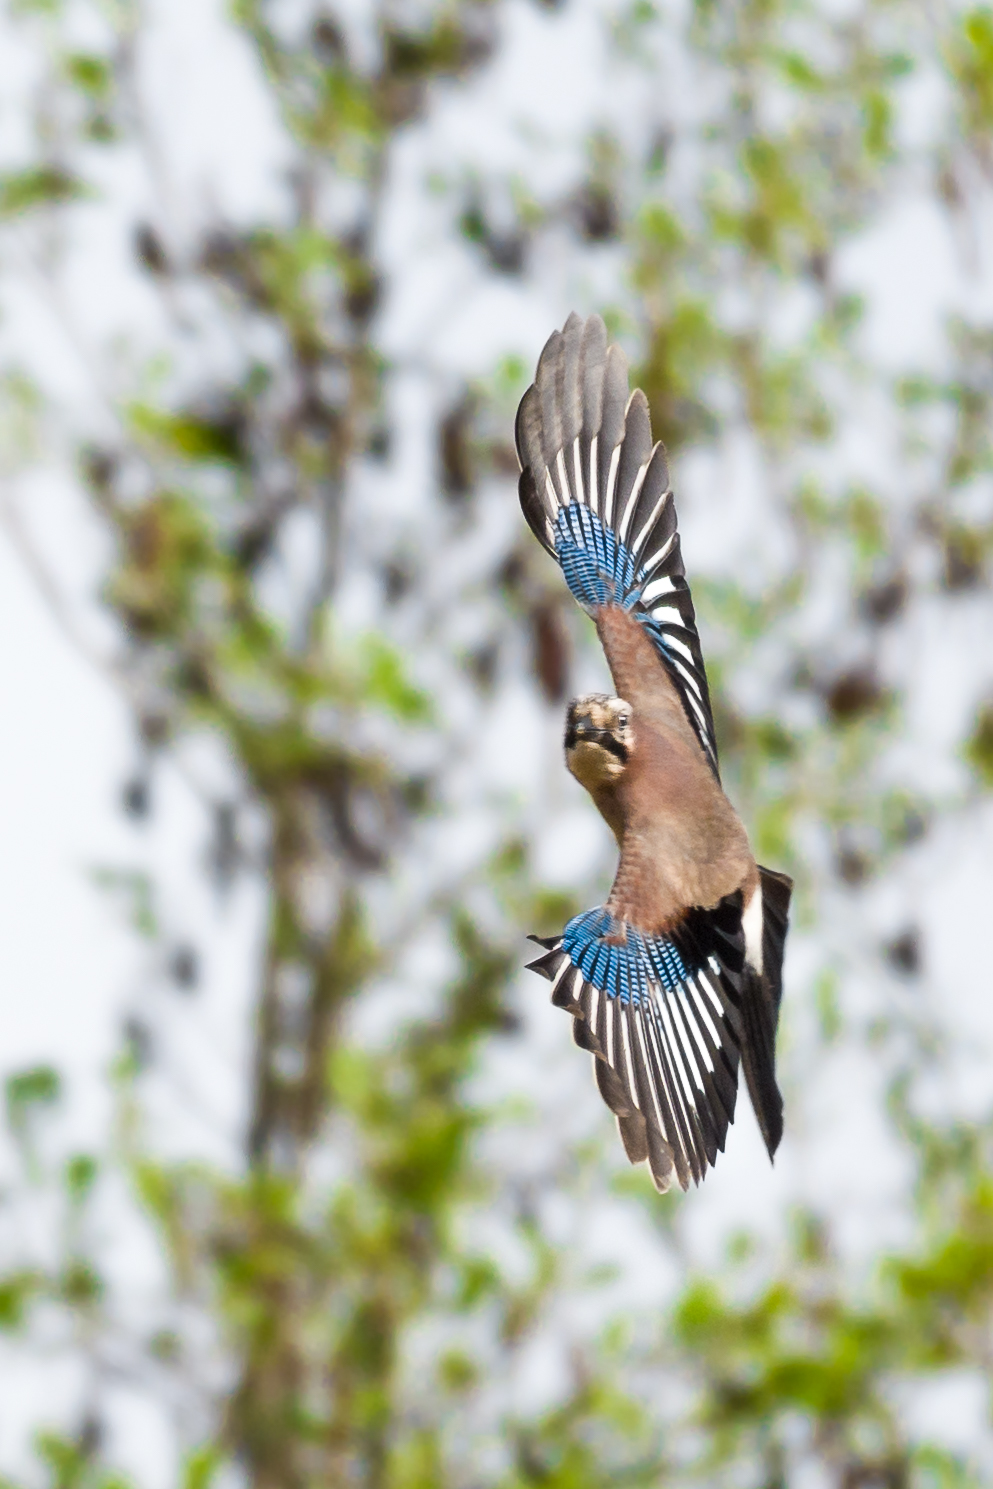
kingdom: Animalia
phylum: Chordata
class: Aves
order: Passeriformes
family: Corvidae
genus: Garrulus
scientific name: Garrulus glandarius
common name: Eurasian jay
